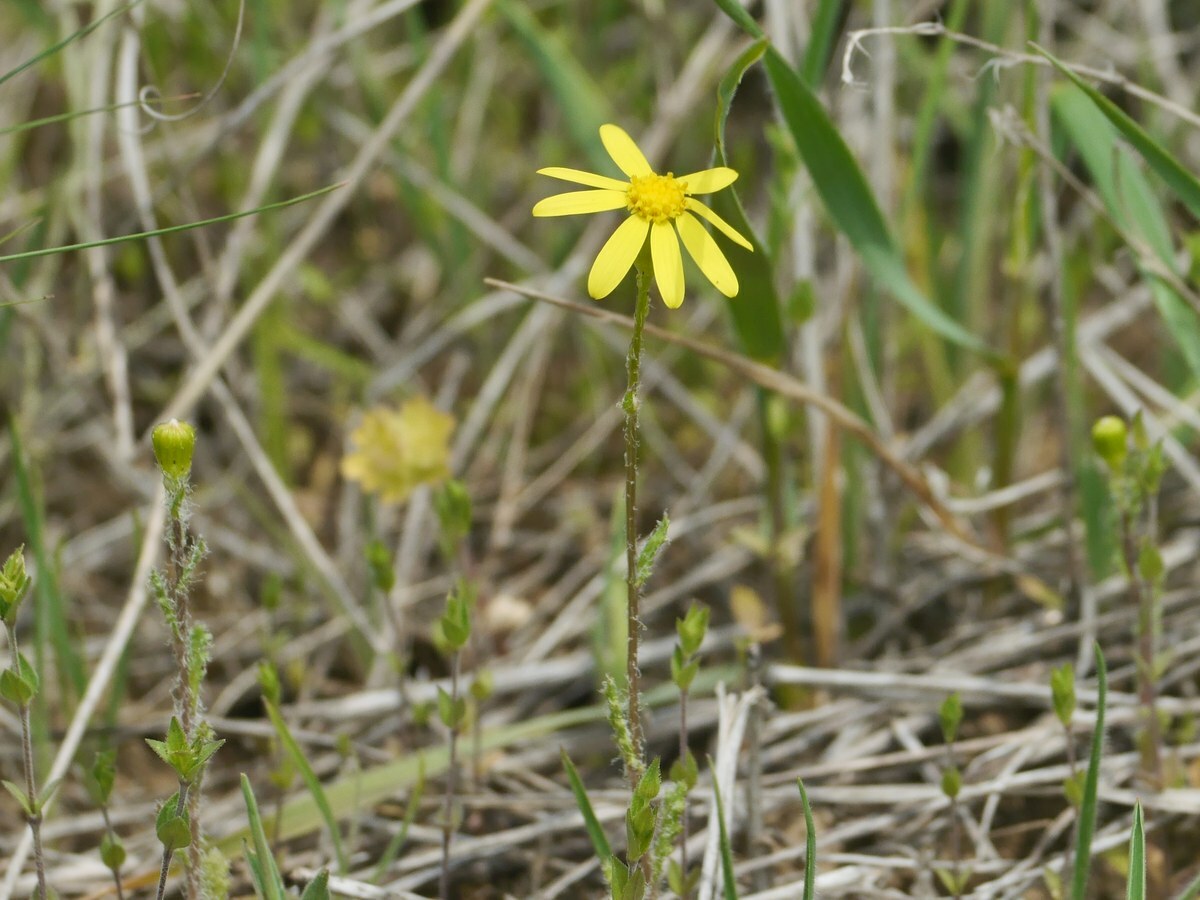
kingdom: Plantae
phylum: Tracheophyta
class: Magnoliopsida
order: Asterales
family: Asteraceae
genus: Senecio
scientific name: Senecio vernalis
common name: Eastern groundsel
